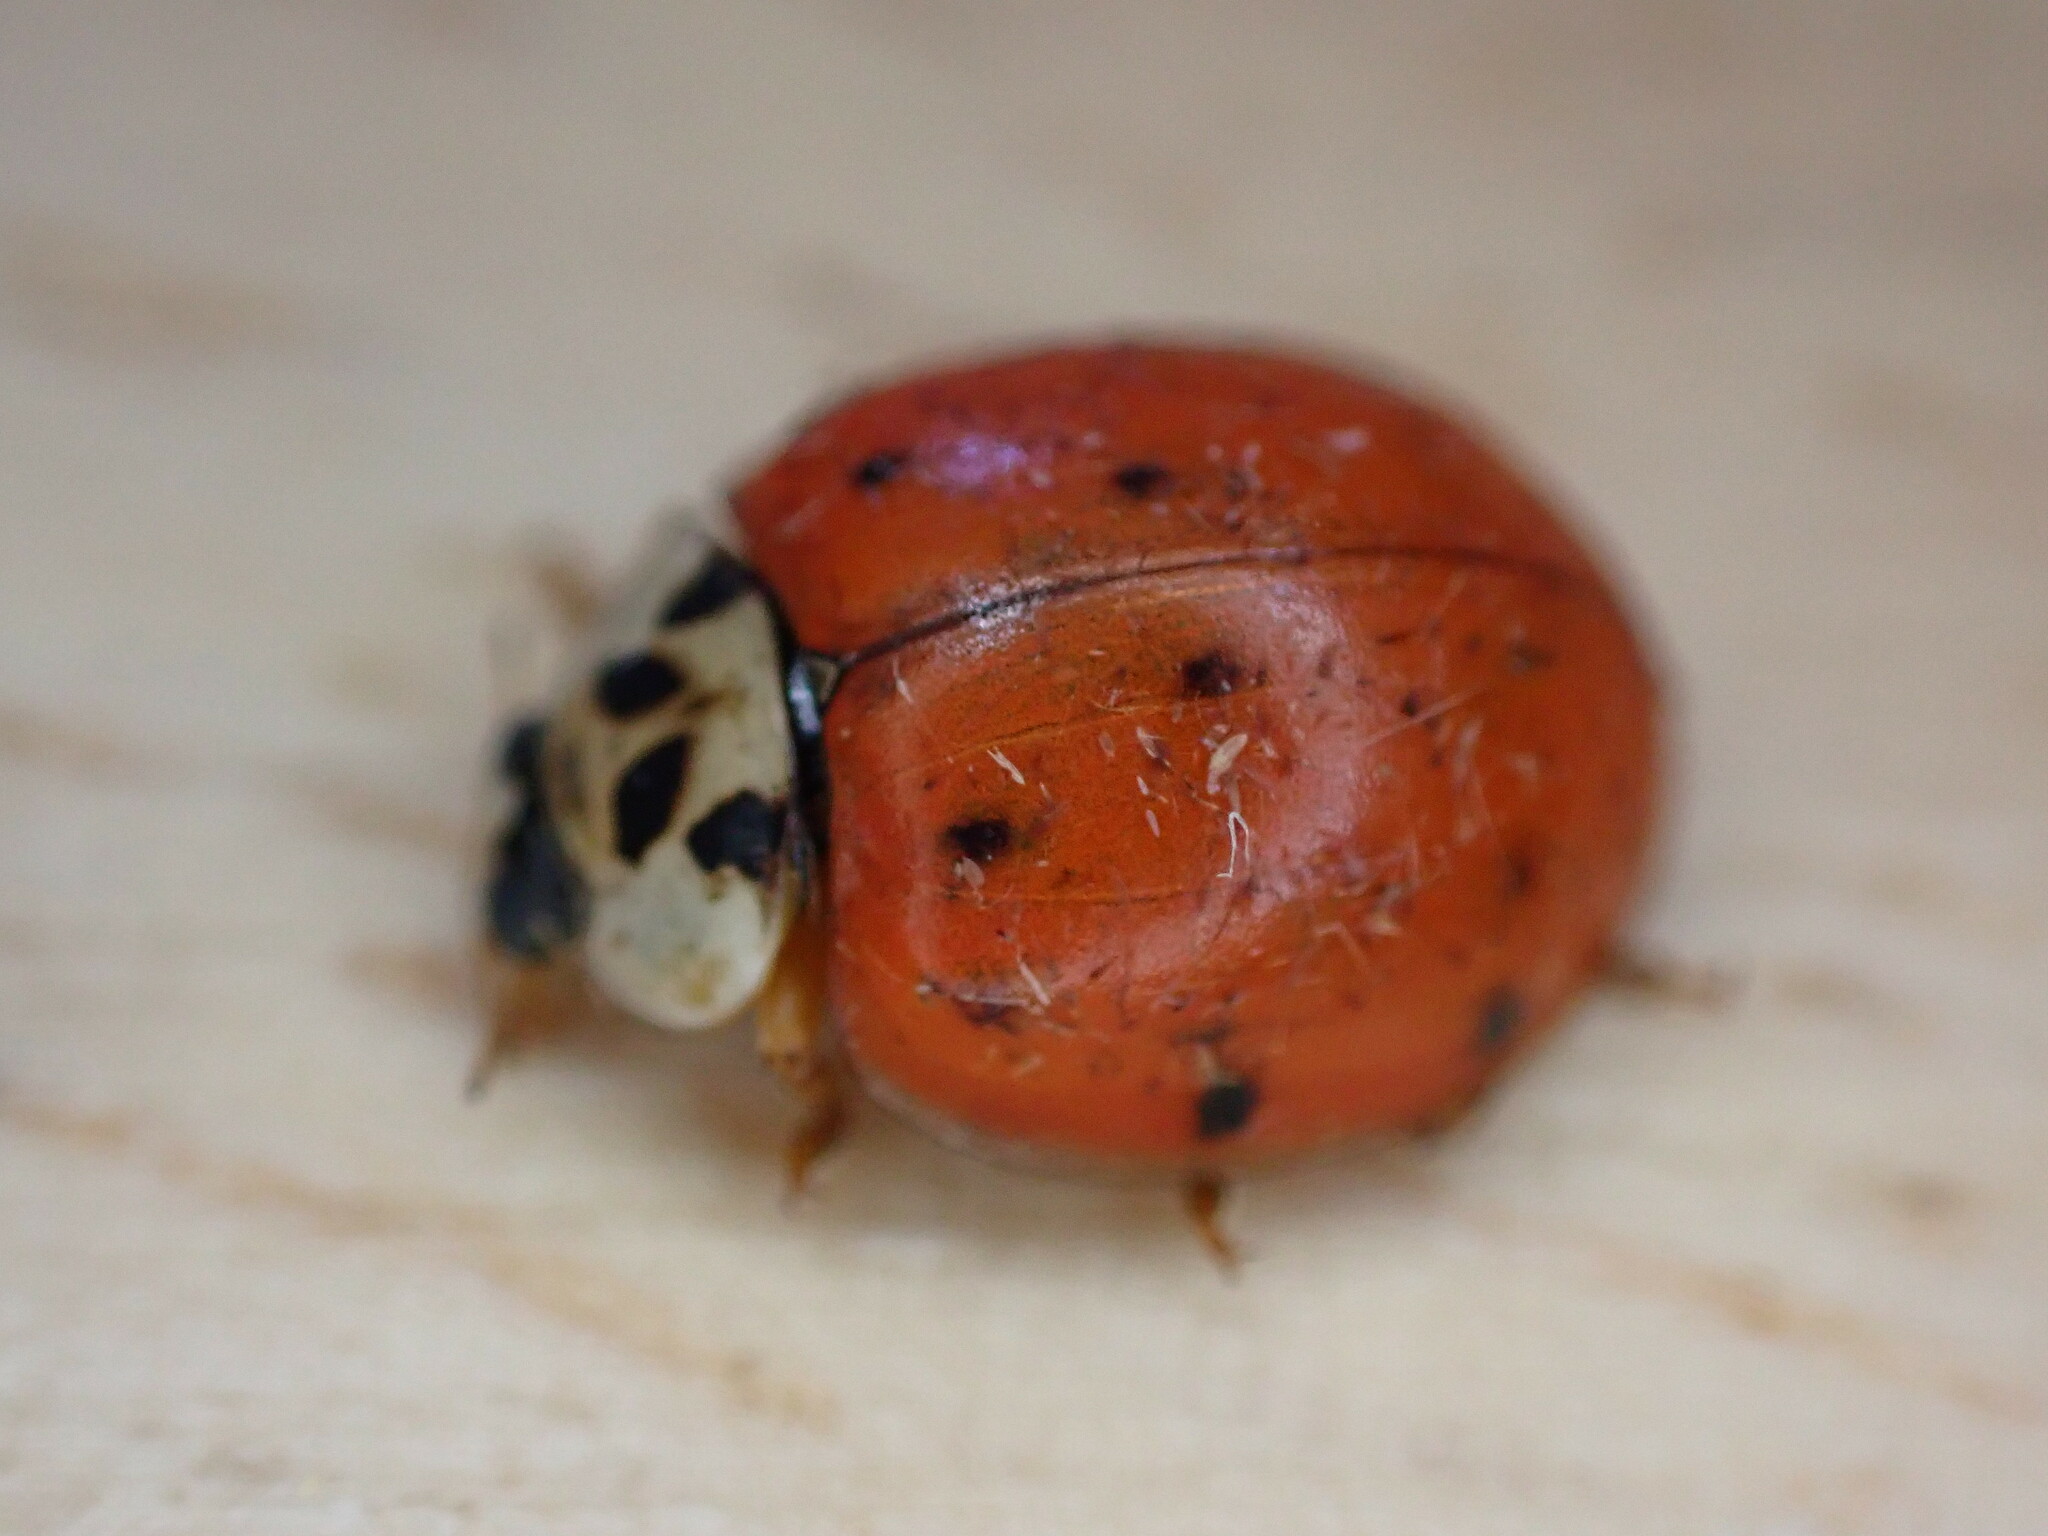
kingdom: Animalia
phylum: Arthropoda
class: Insecta
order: Coleoptera
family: Coccinellidae
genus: Harmonia
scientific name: Harmonia axyridis
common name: Harlequin ladybird
